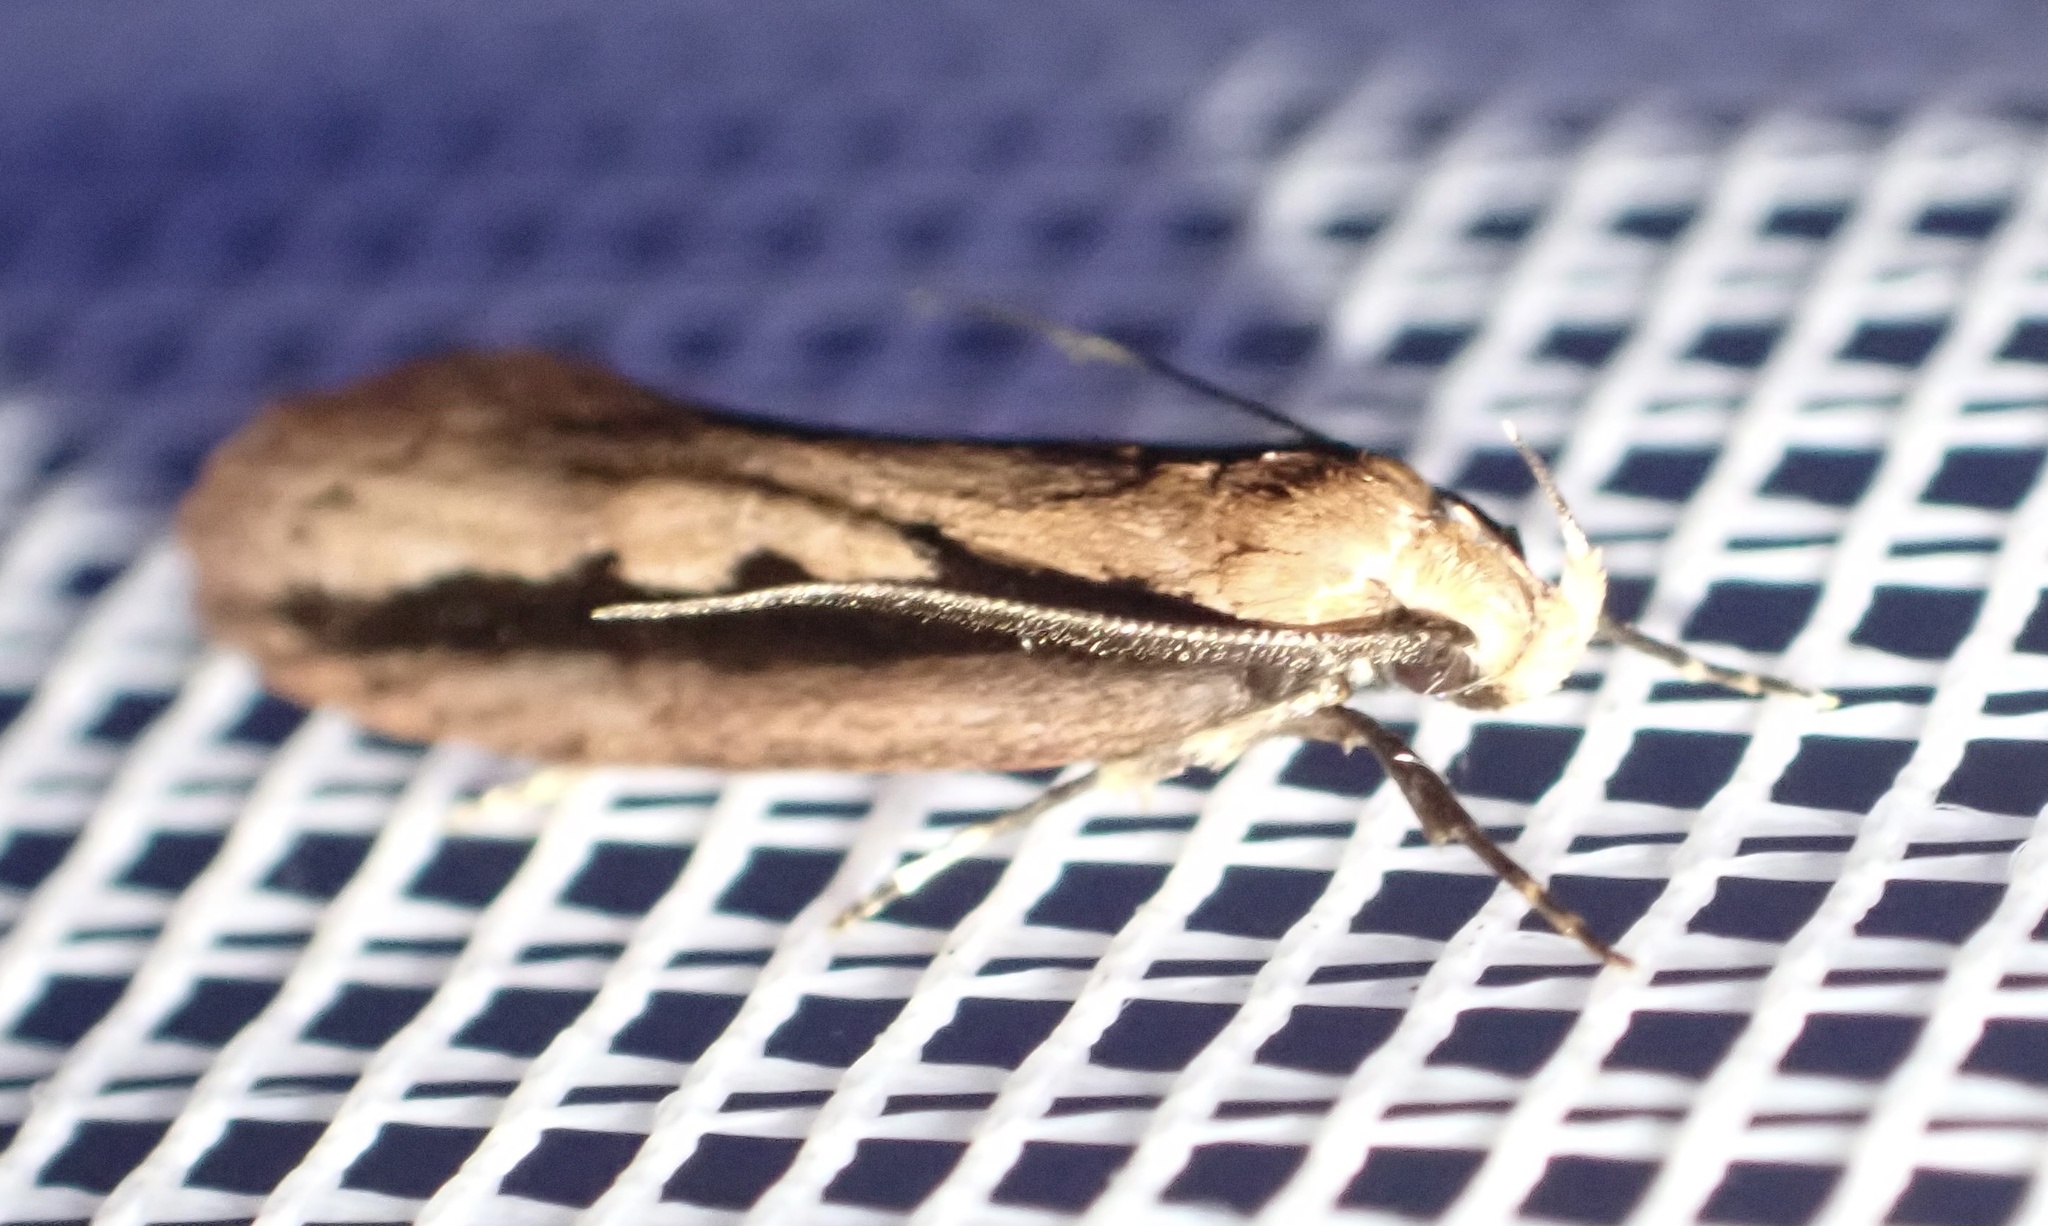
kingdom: Animalia
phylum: Arthropoda
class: Insecta
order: Lepidoptera
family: Oecophoridae
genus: Leptocroca
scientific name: Leptocroca sanguinolenta
